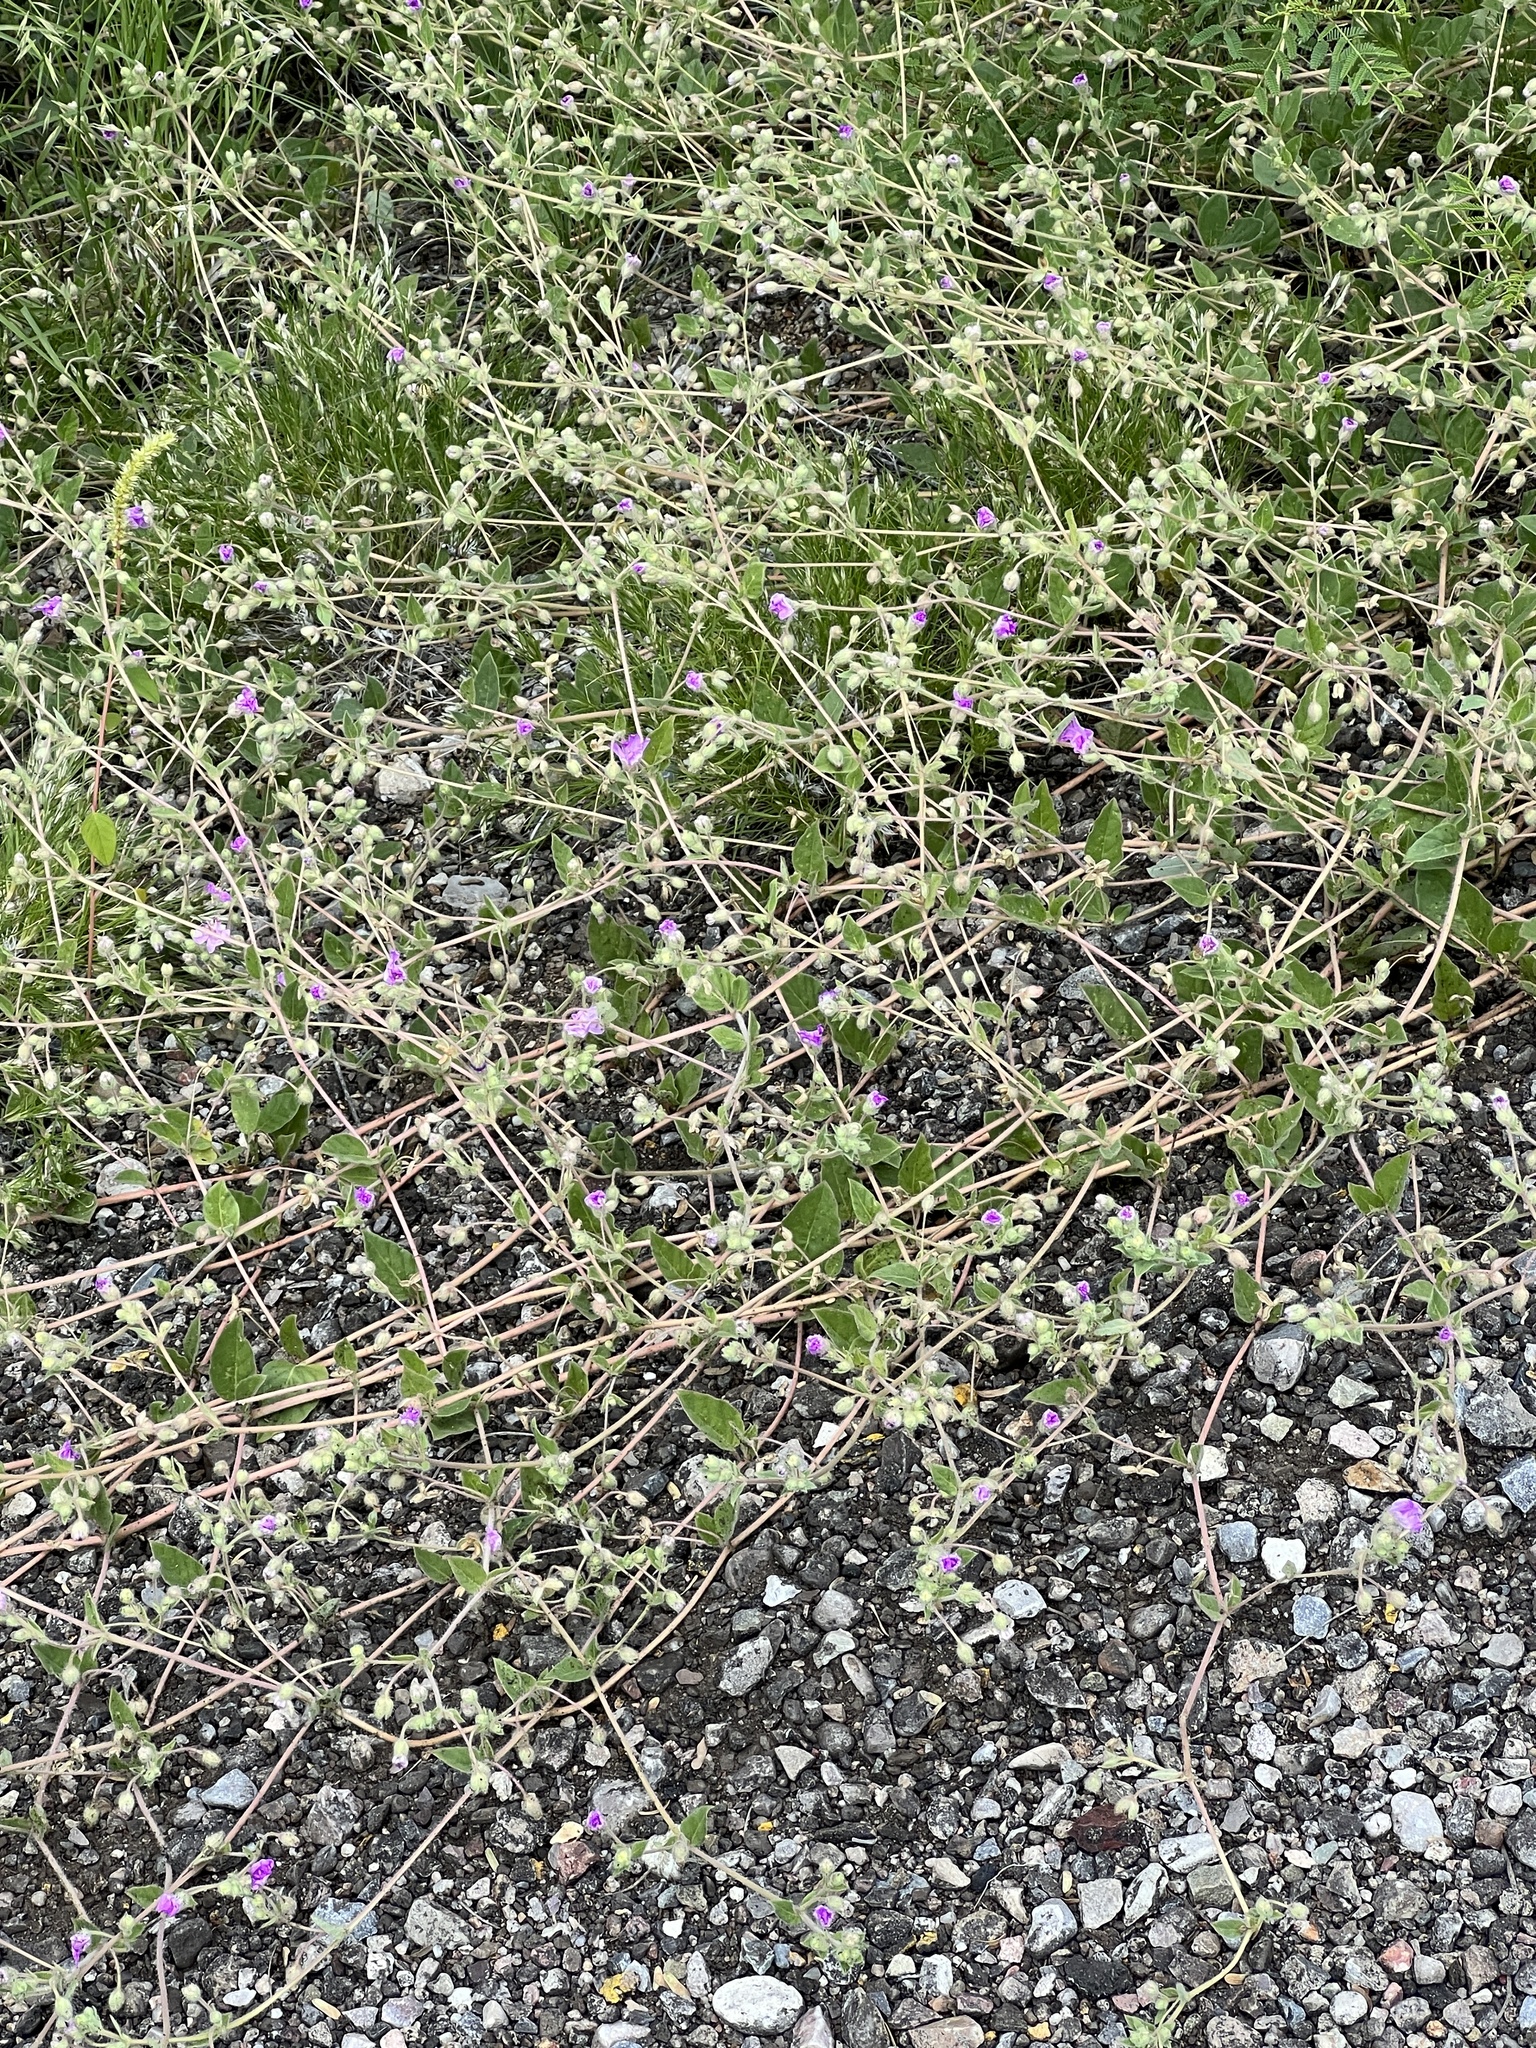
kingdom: Plantae
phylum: Tracheophyta
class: Magnoliopsida
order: Caryophyllales
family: Nyctaginaceae
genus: Allionia
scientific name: Allionia incarnata
